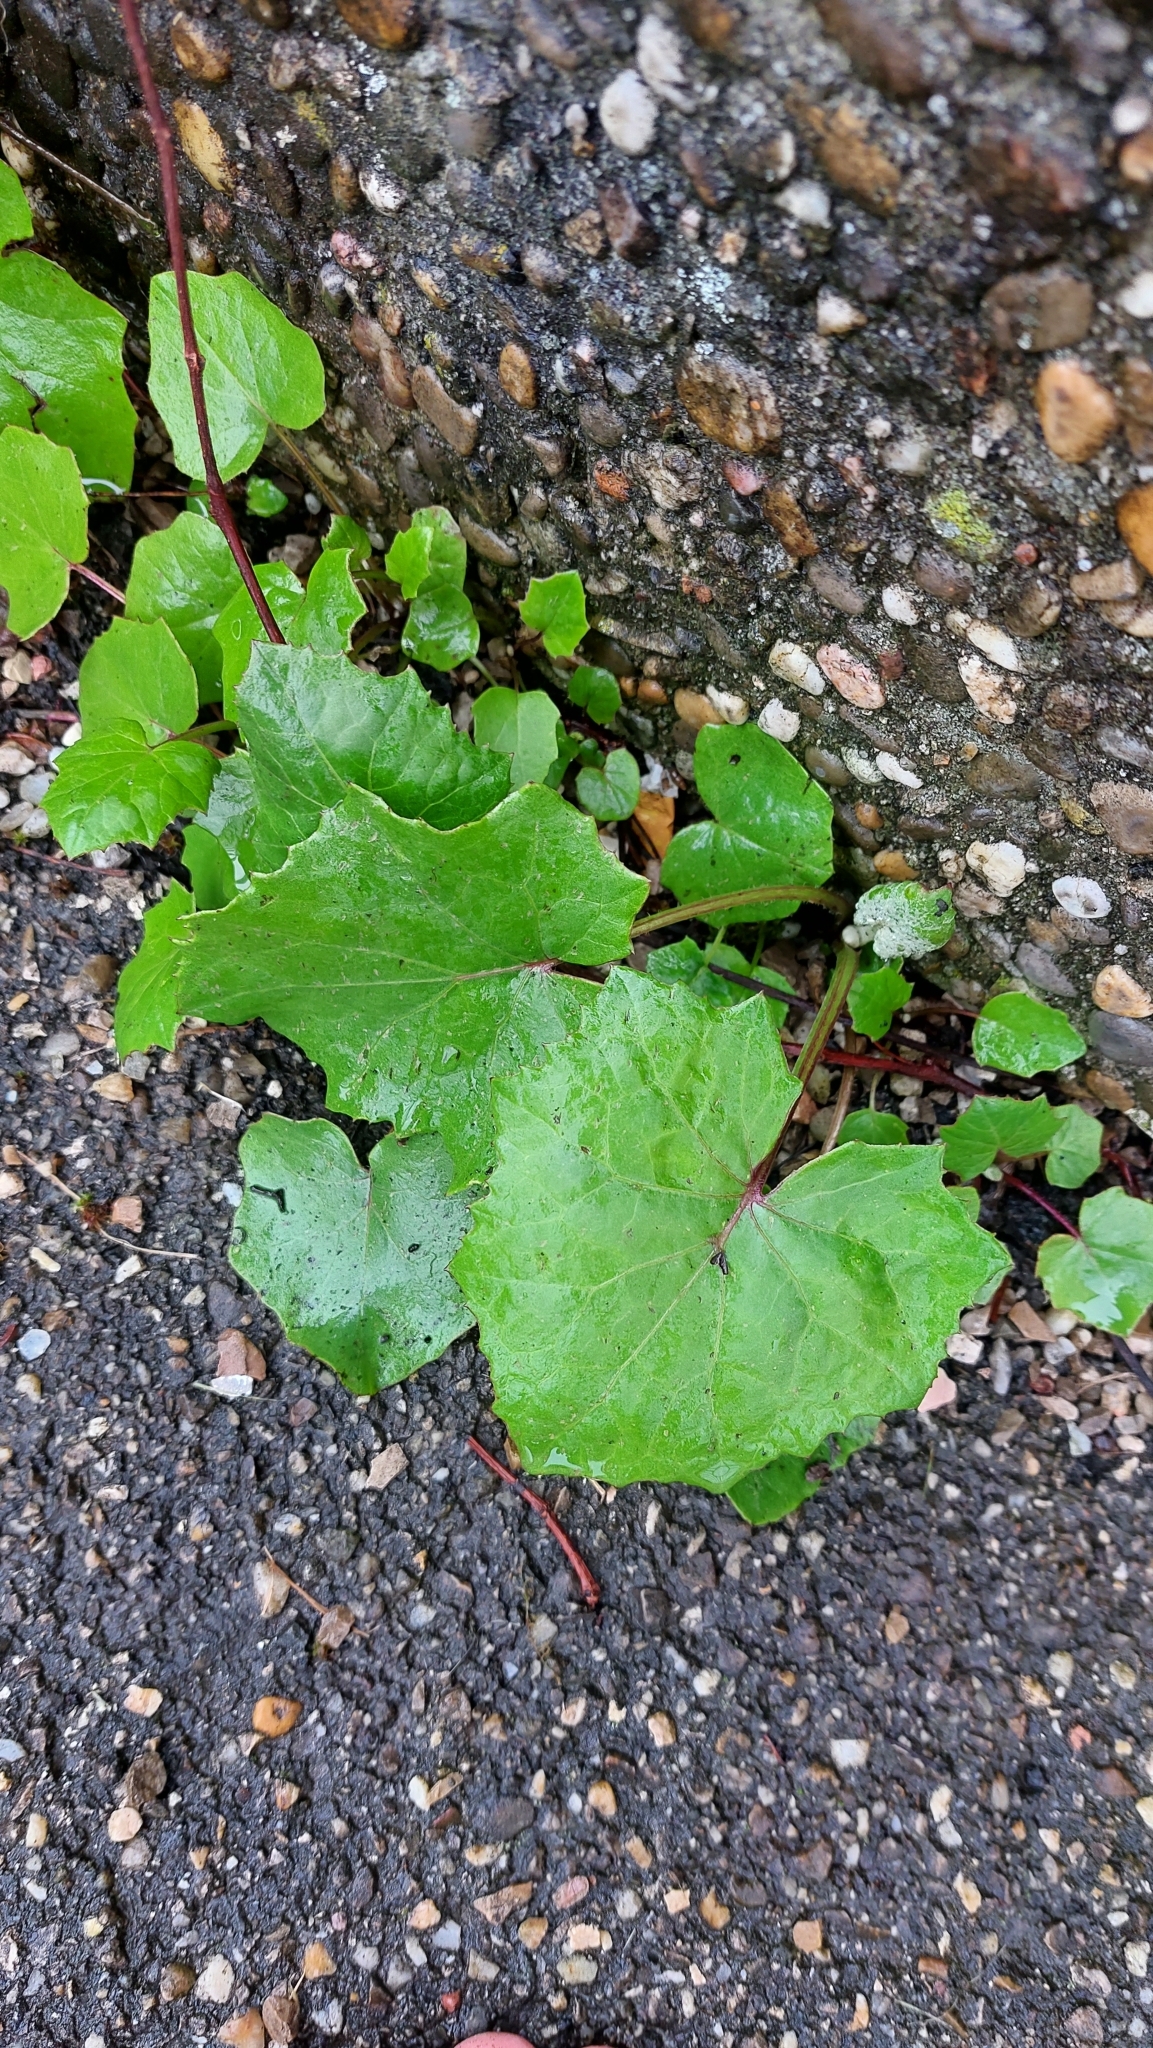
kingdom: Plantae
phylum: Tracheophyta
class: Magnoliopsida
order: Asterales
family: Asteraceae
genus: Tussilago
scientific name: Tussilago farfara
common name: Coltsfoot
